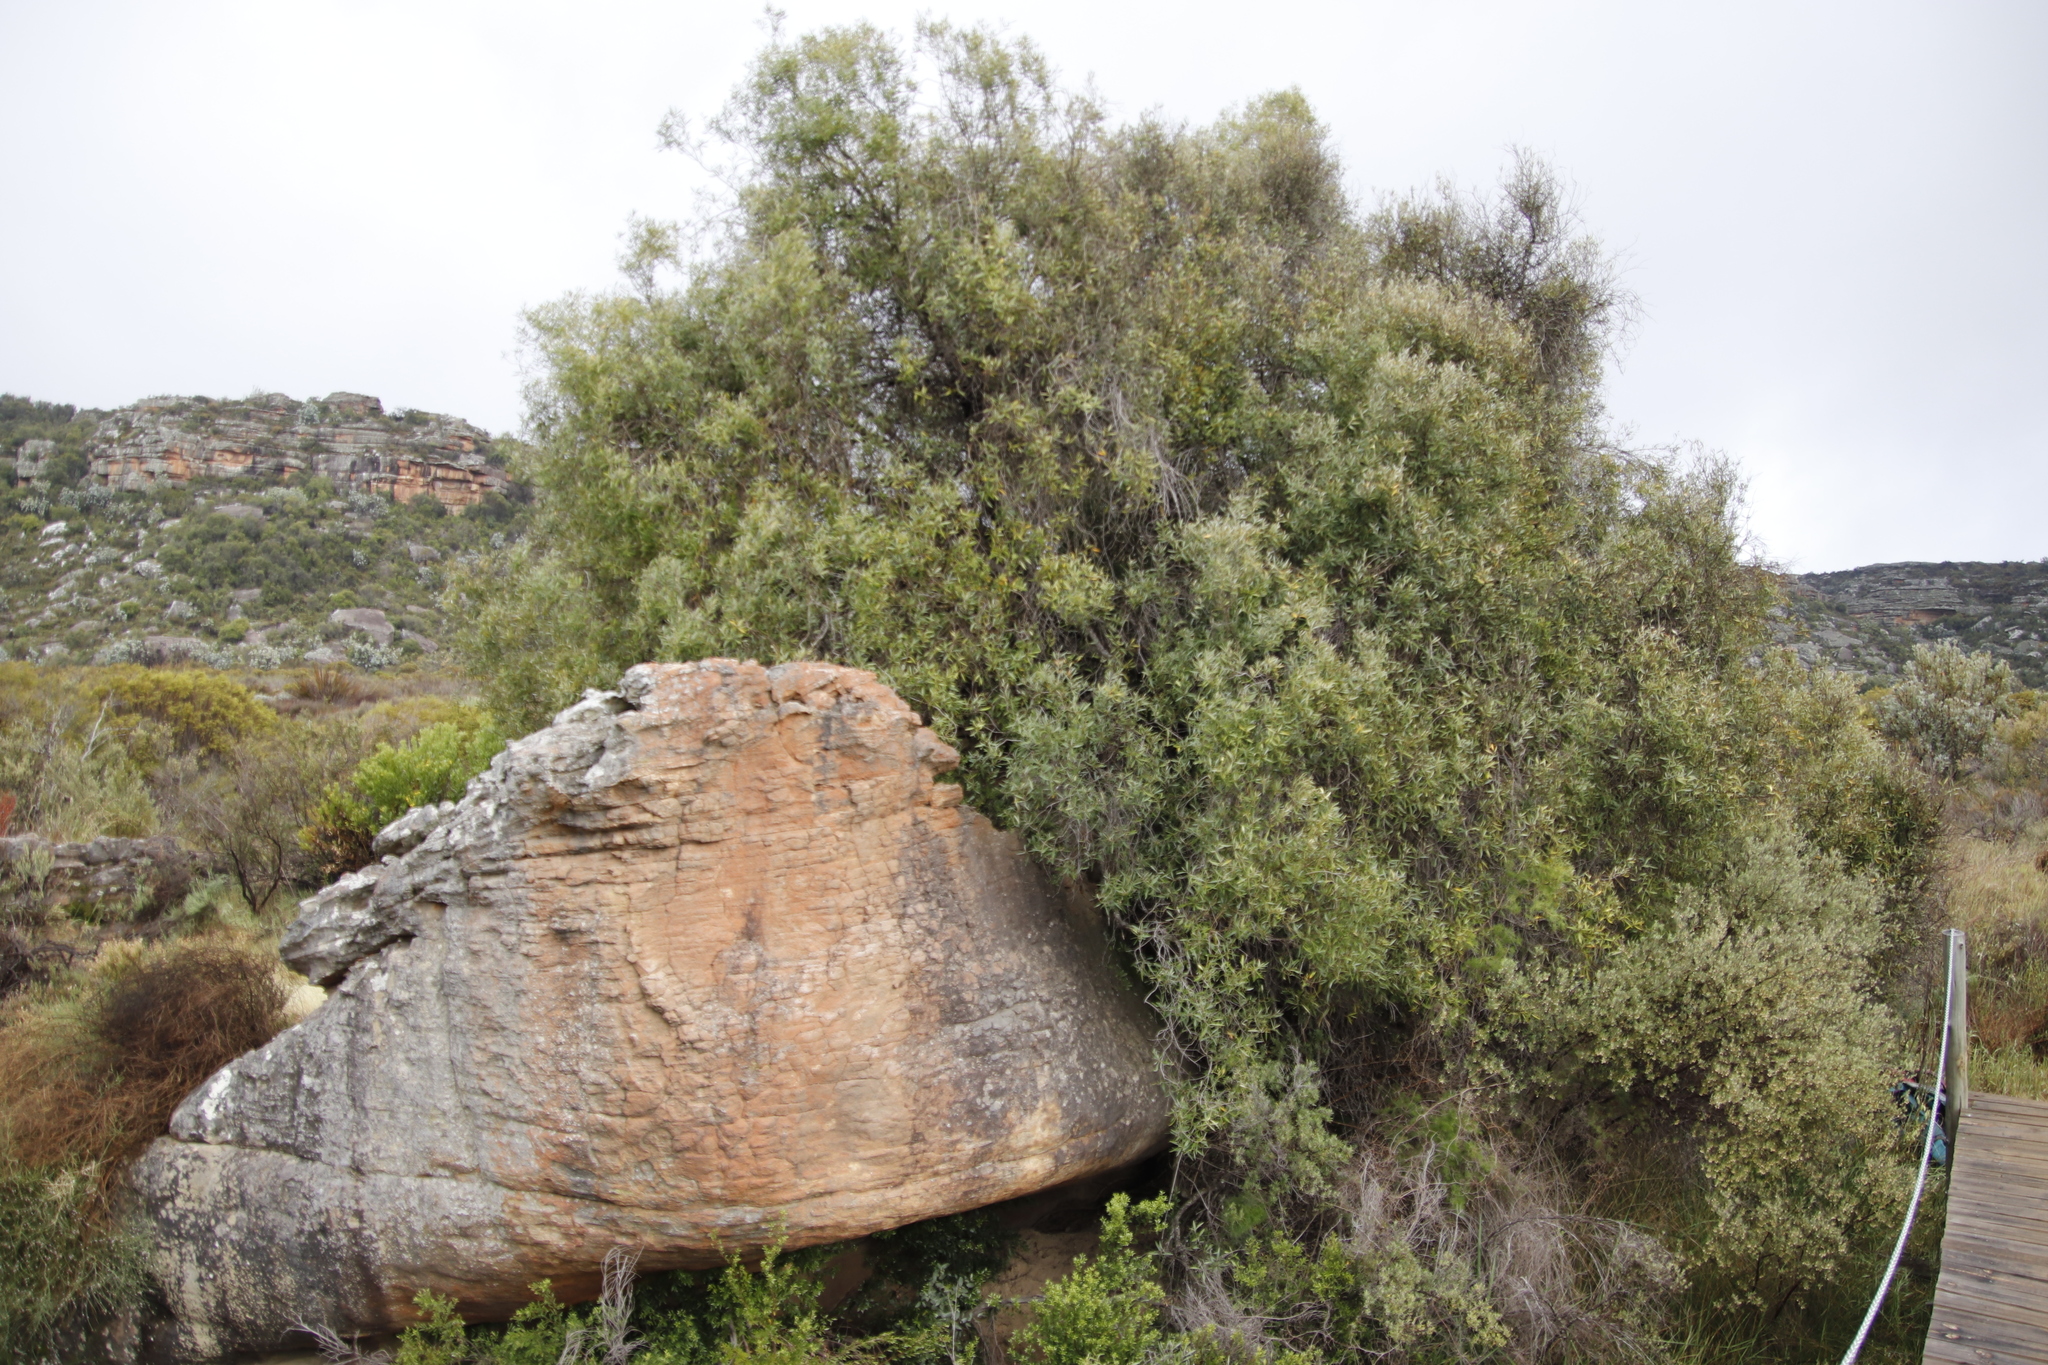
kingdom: Plantae
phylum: Tracheophyta
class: Magnoliopsida
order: Lamiales
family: Oleaceae
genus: Olea
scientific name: Olea europaea
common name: Olive
